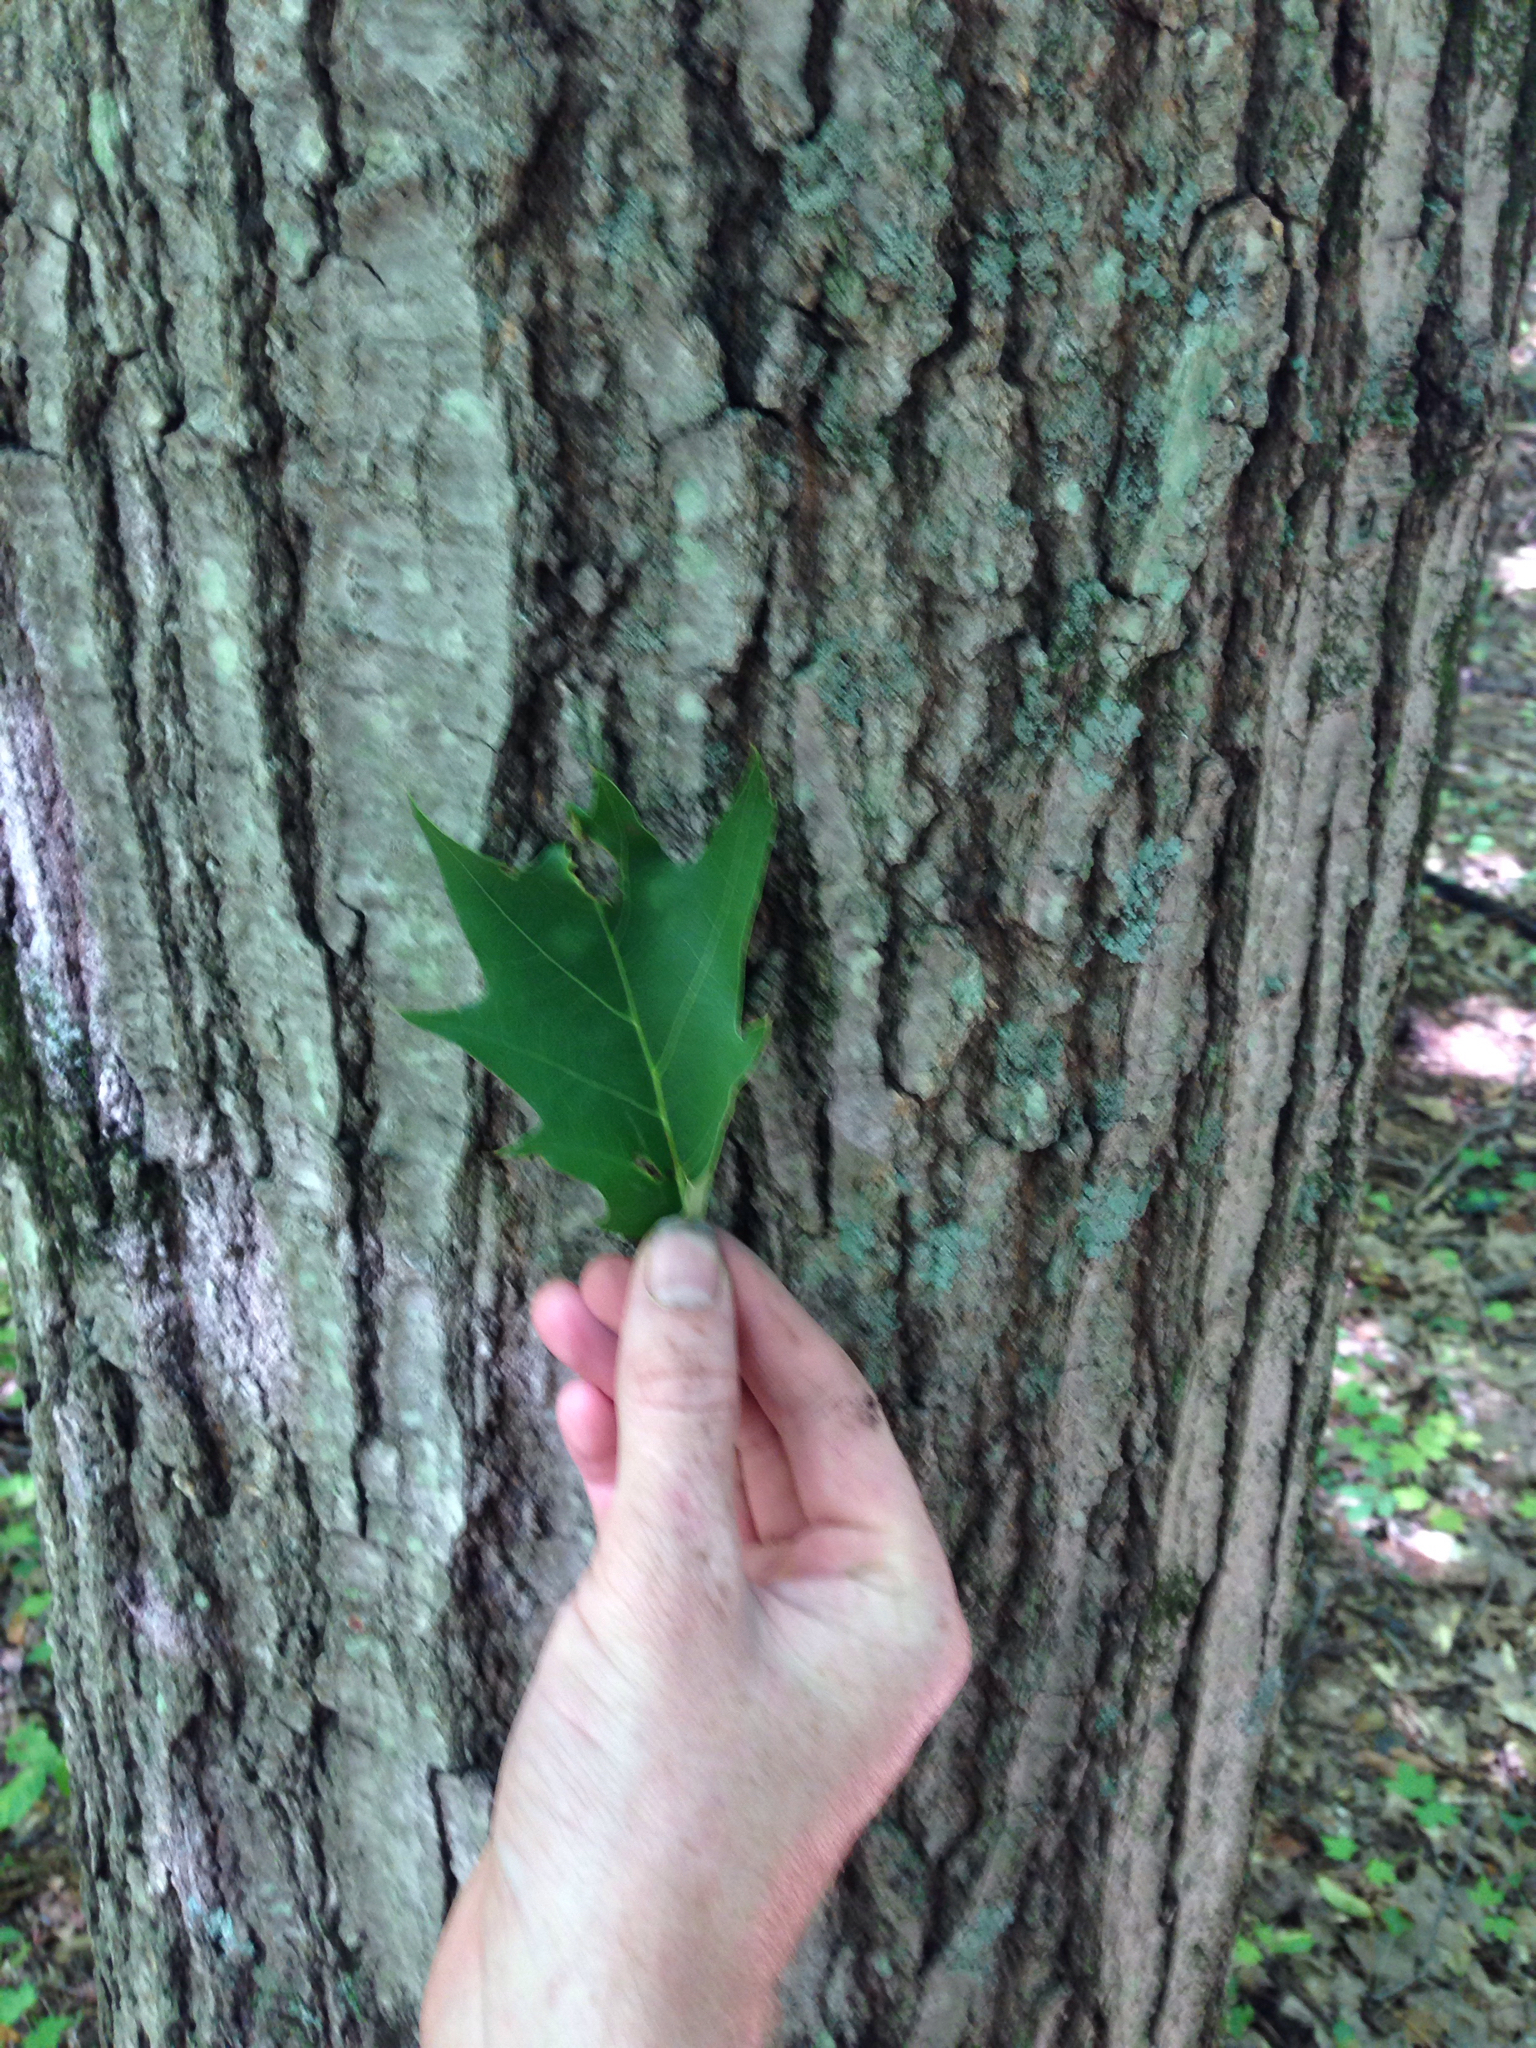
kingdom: Plantae
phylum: Tracheophyta
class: Magnoliopsida
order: Fagales
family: Fagaceae
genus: Quercus
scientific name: Quercus rubra
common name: Red oak
